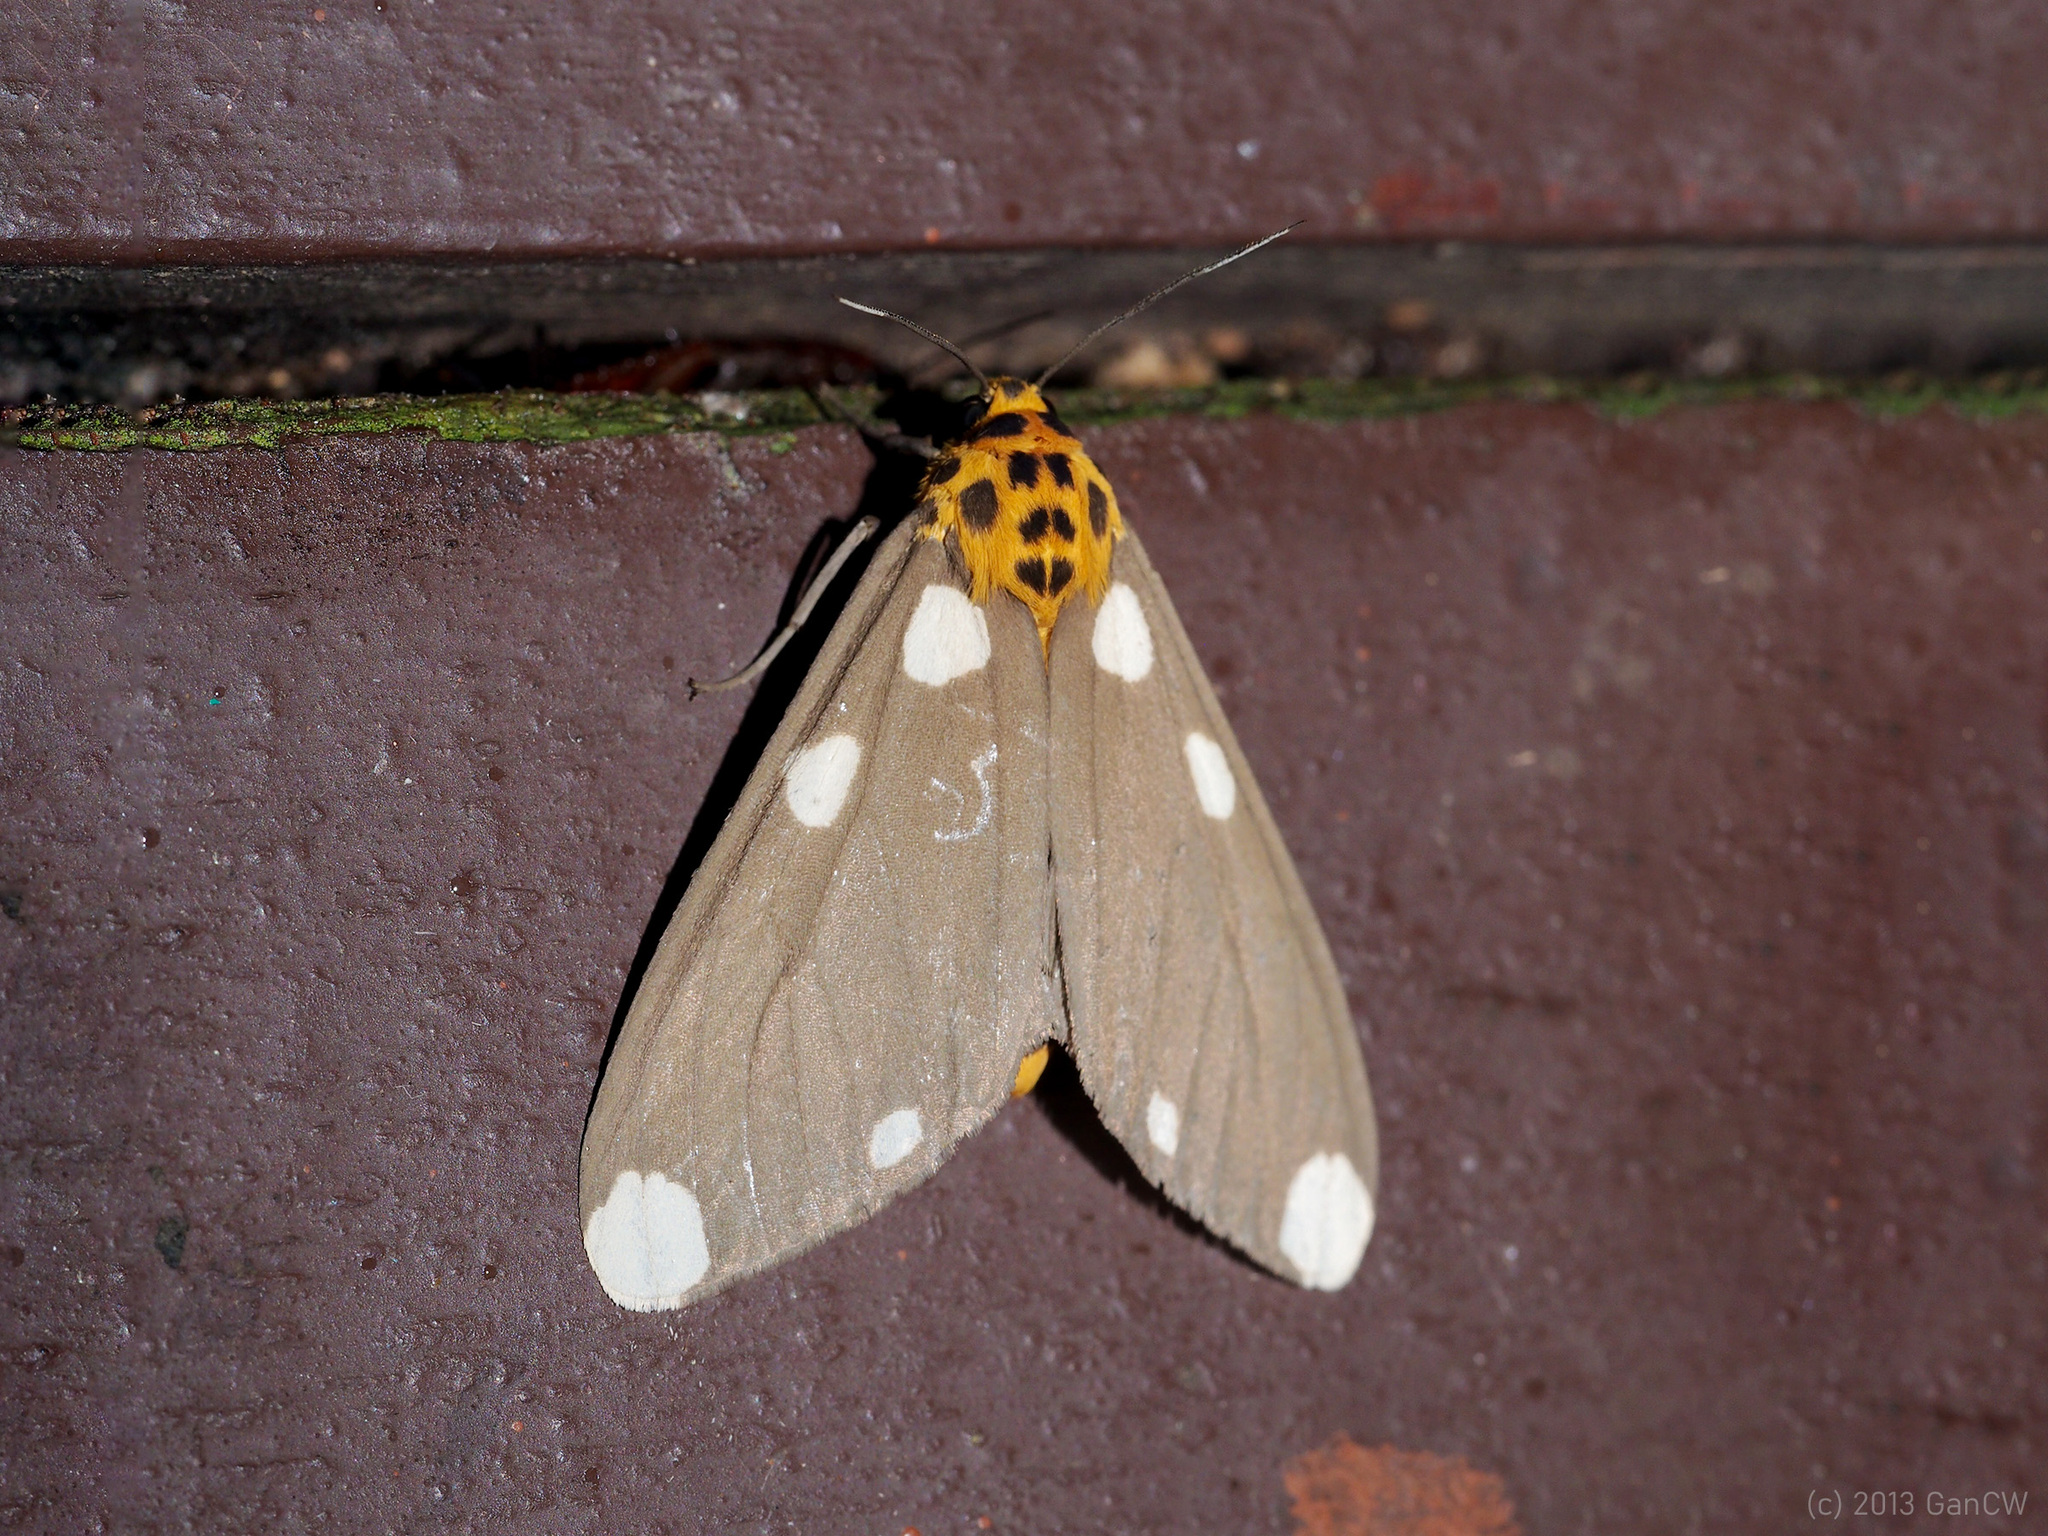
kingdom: Animalia
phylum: Arthropoda
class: Insecta
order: Lepidoptera
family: Erebidae
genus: Aethalida
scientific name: Aethalida borneana
